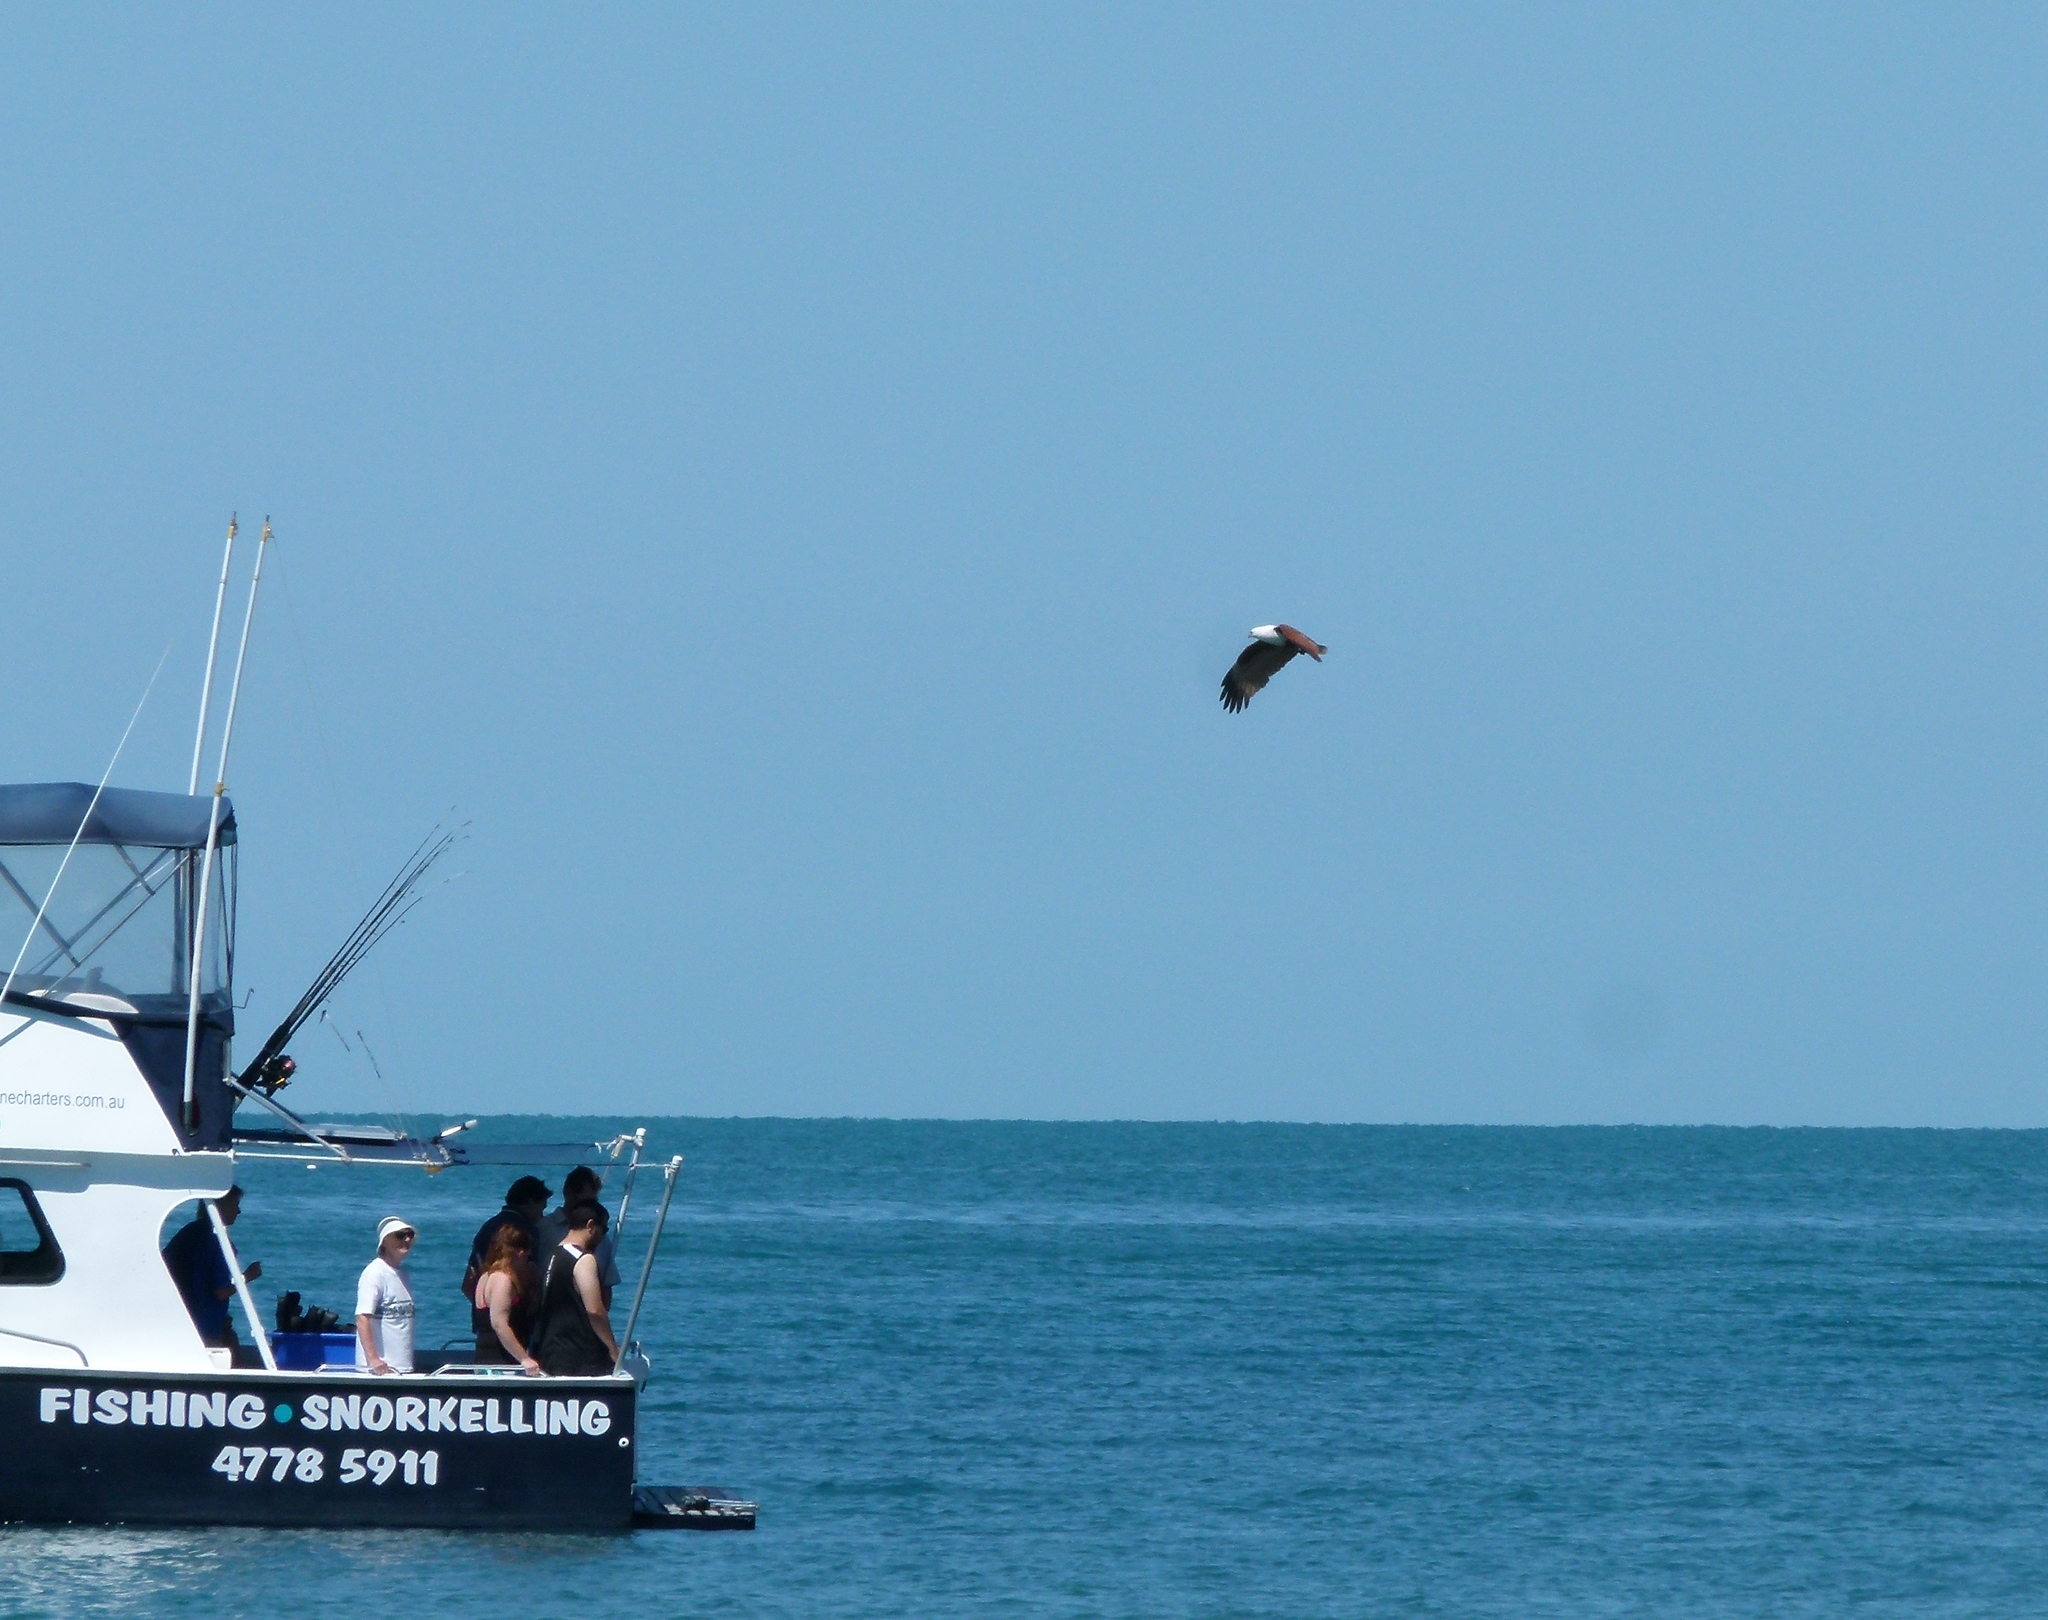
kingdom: Animalia
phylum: Chordata
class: Aves
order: Accipitriformes
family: Accipitridae
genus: Haliastur
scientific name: Haliastur indus
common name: Brahminy kite
